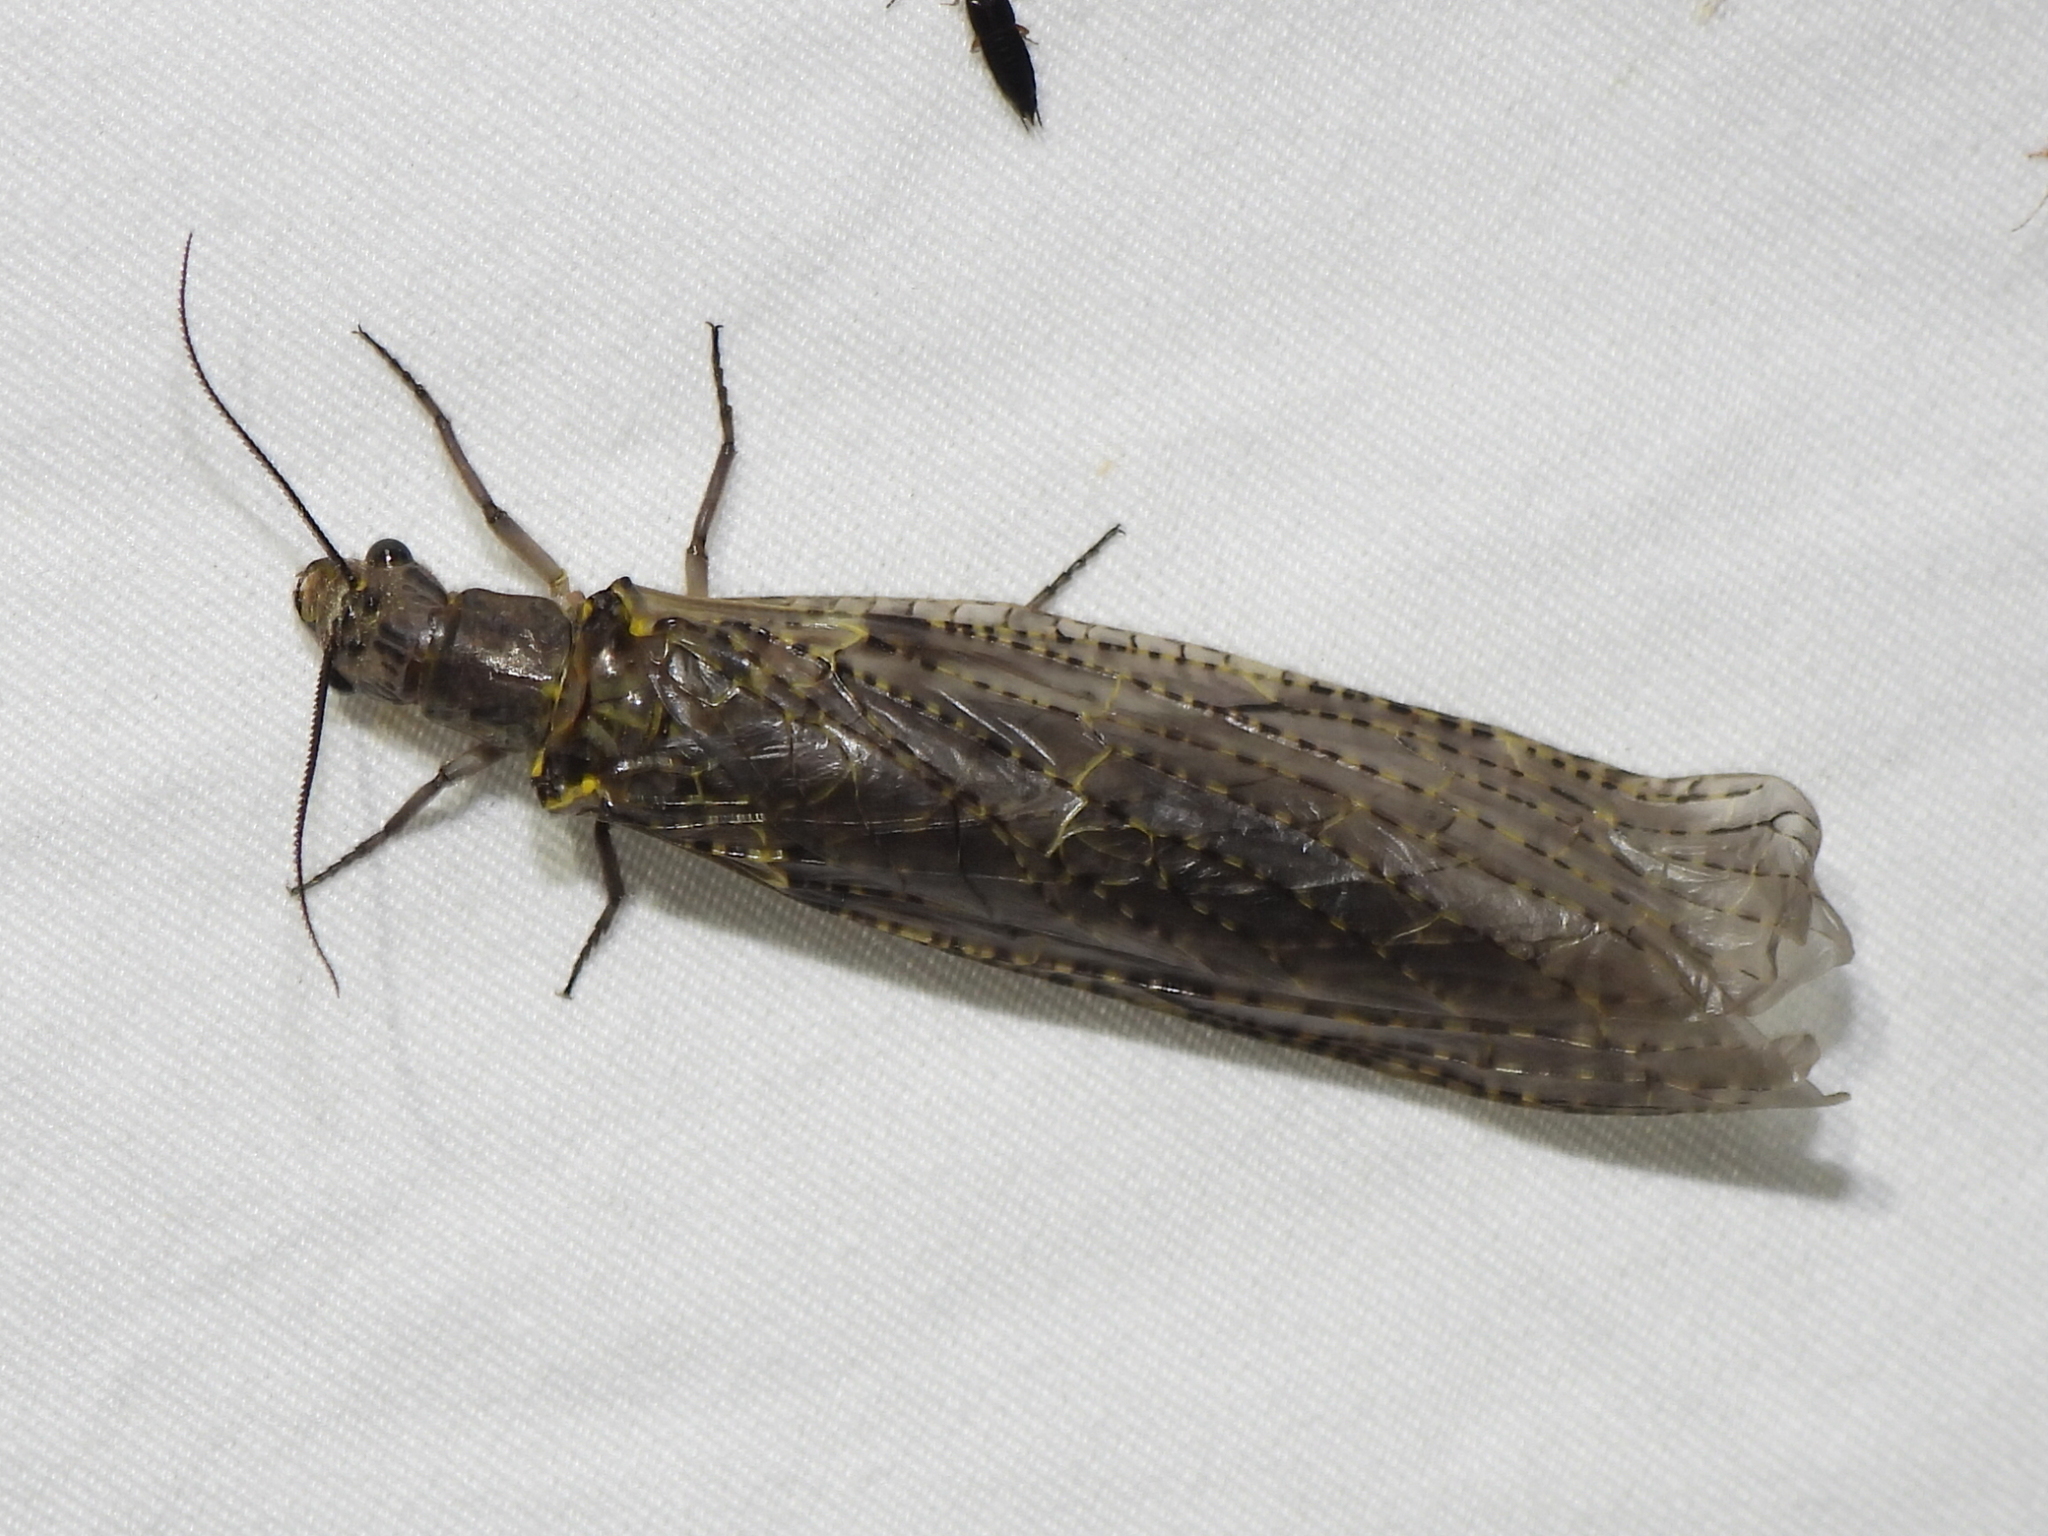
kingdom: Animalia
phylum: Arthropoda
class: Insecta
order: Megaloptera
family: Corydalidae
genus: Chauliodes
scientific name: Chauliodes rastricornis
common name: Spring fishfly
